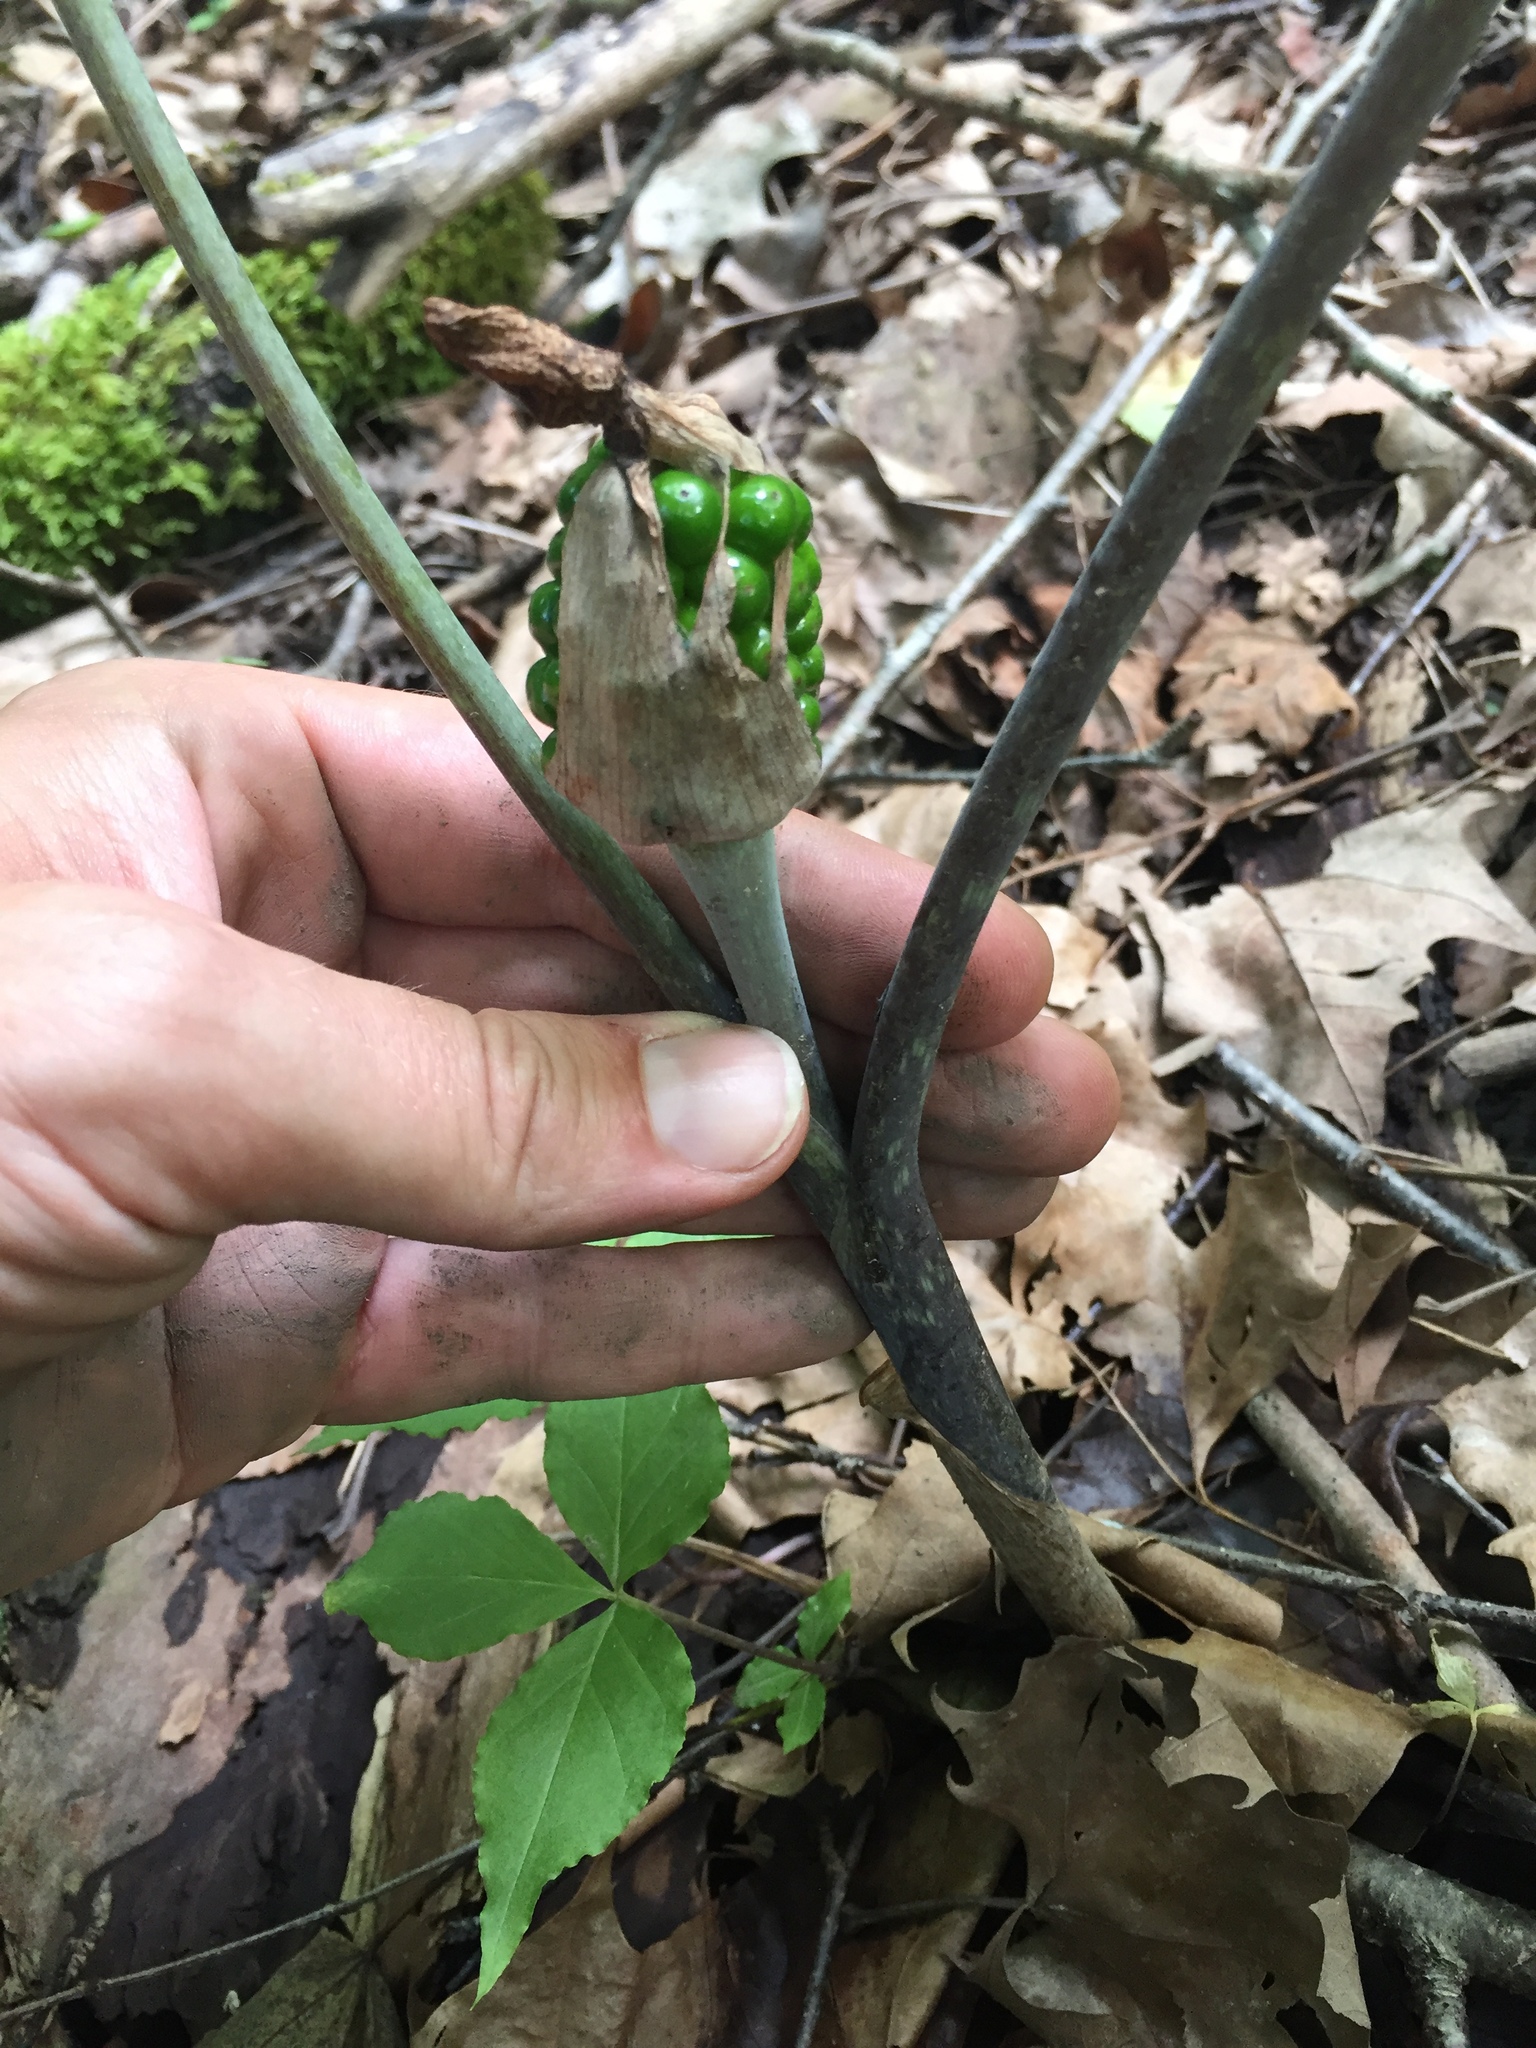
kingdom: Plantae
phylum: Tracheophyta
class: Liliopsida
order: Alismatales
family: Araceae
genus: Arisaema
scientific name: Arisaema triphyllum
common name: Jack-in-the-pulpit
